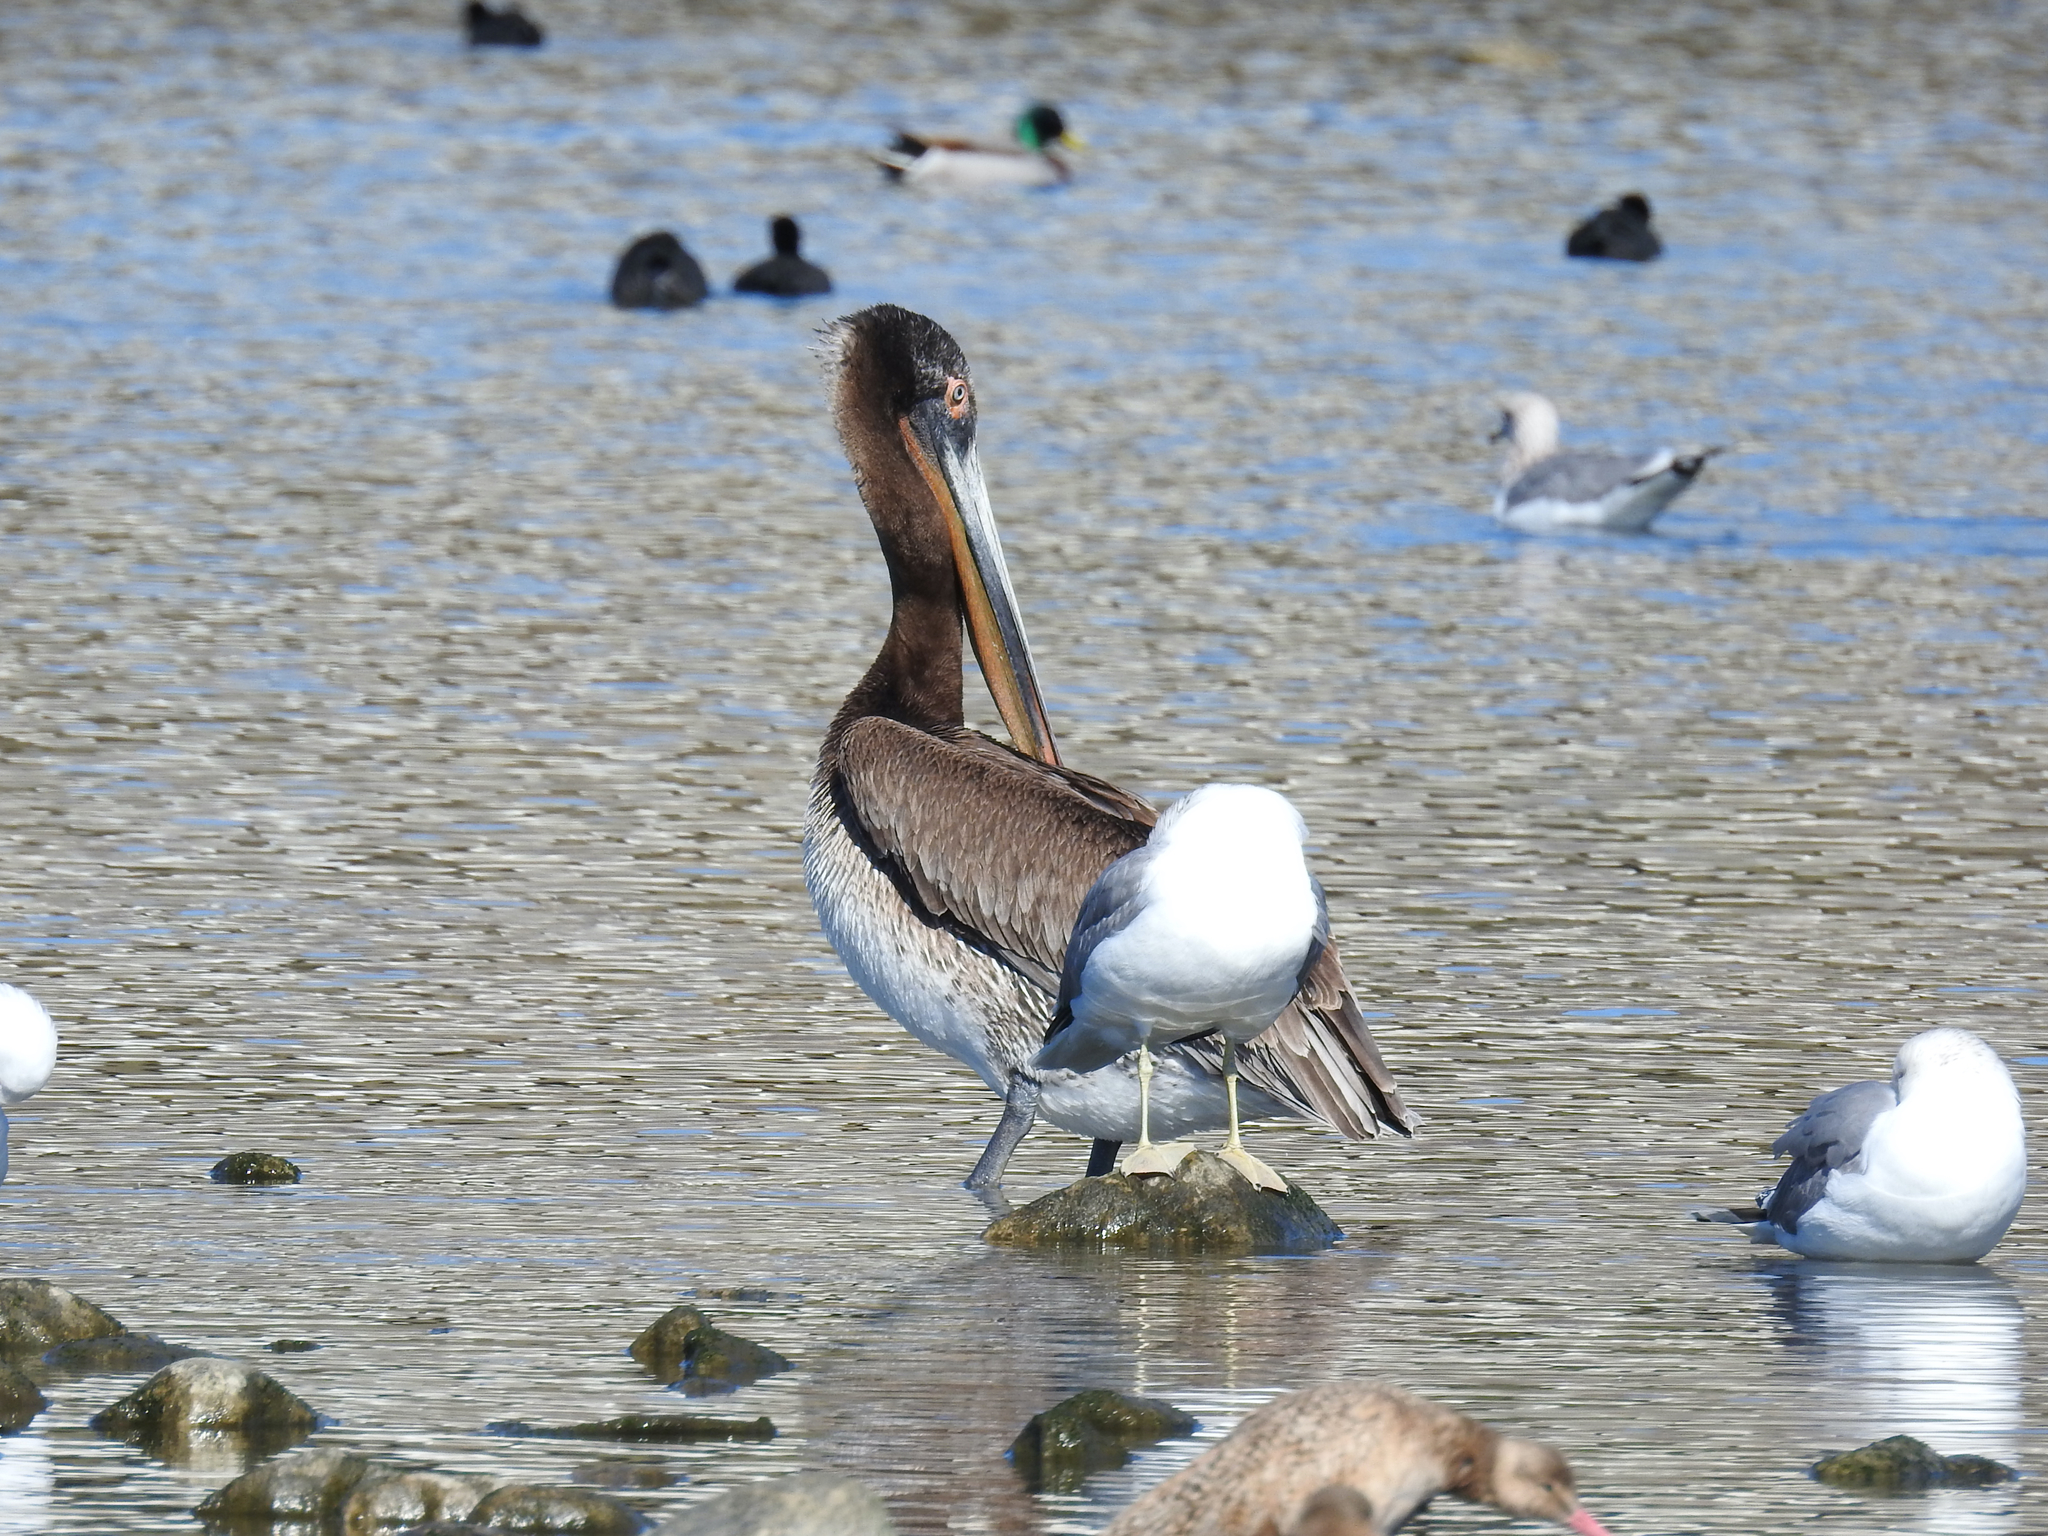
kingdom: Animalia
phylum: Chordata
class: Aves
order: Pelecaniformes
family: Pelecanidae
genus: Pelecanus
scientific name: Pelecanus occidentalis
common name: Brown pelican
